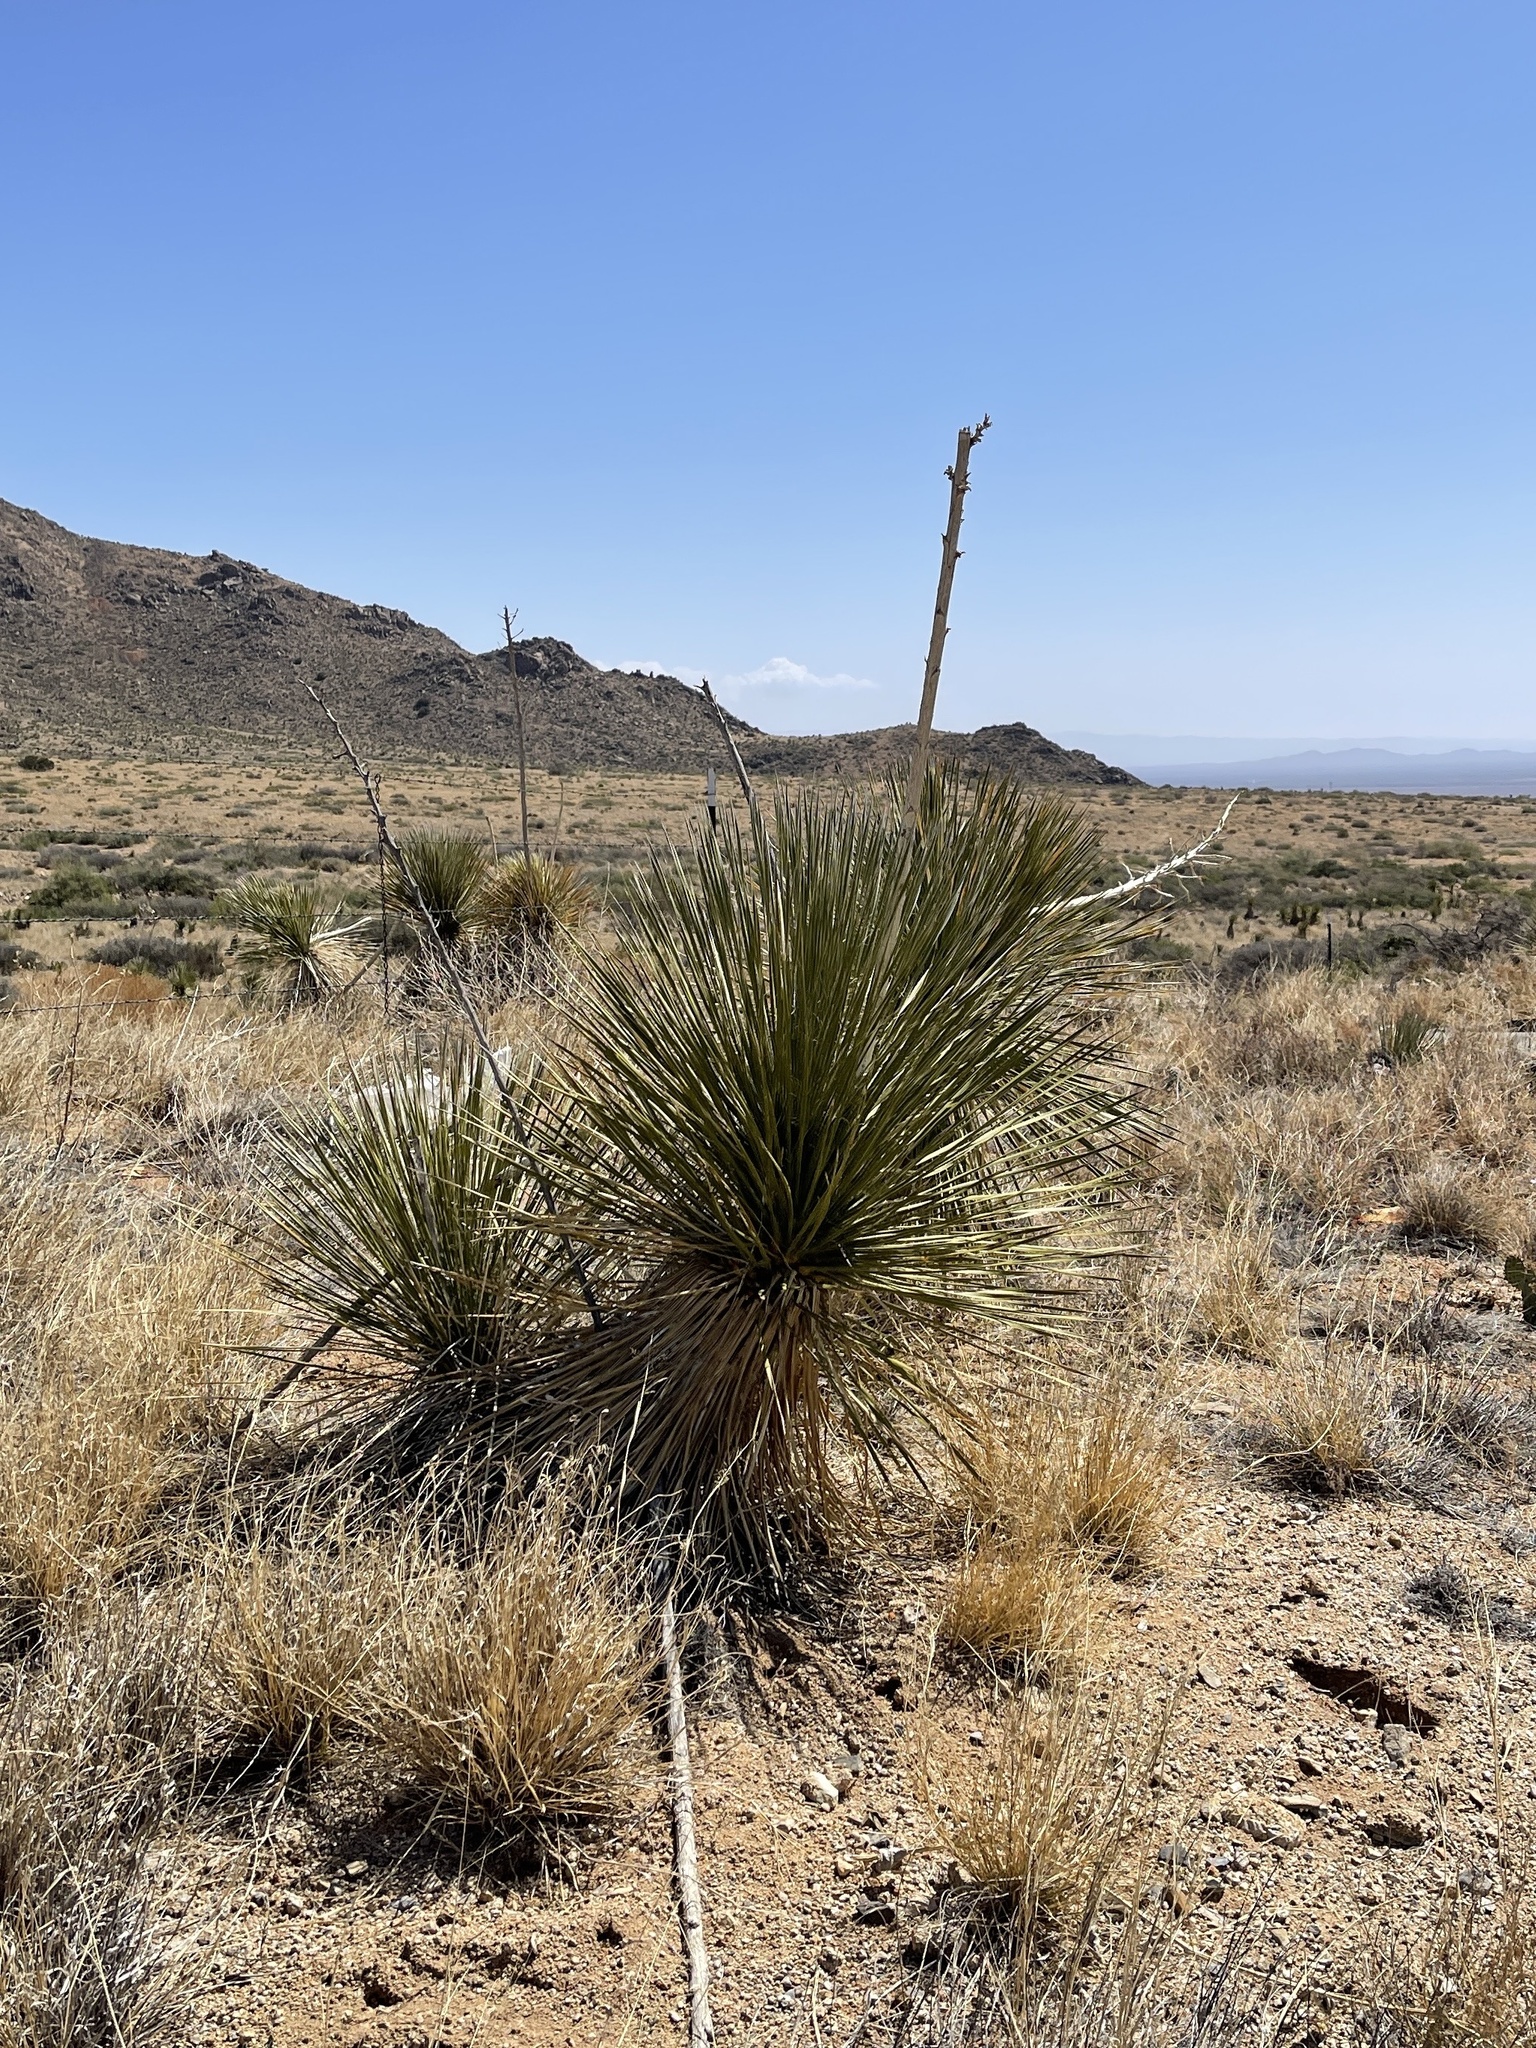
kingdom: Plantae
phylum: Tracheophyta
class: Liliopsida
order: Asparagales
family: Asparagaceae
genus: Yucca
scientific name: Yucca elata
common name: Palmella
